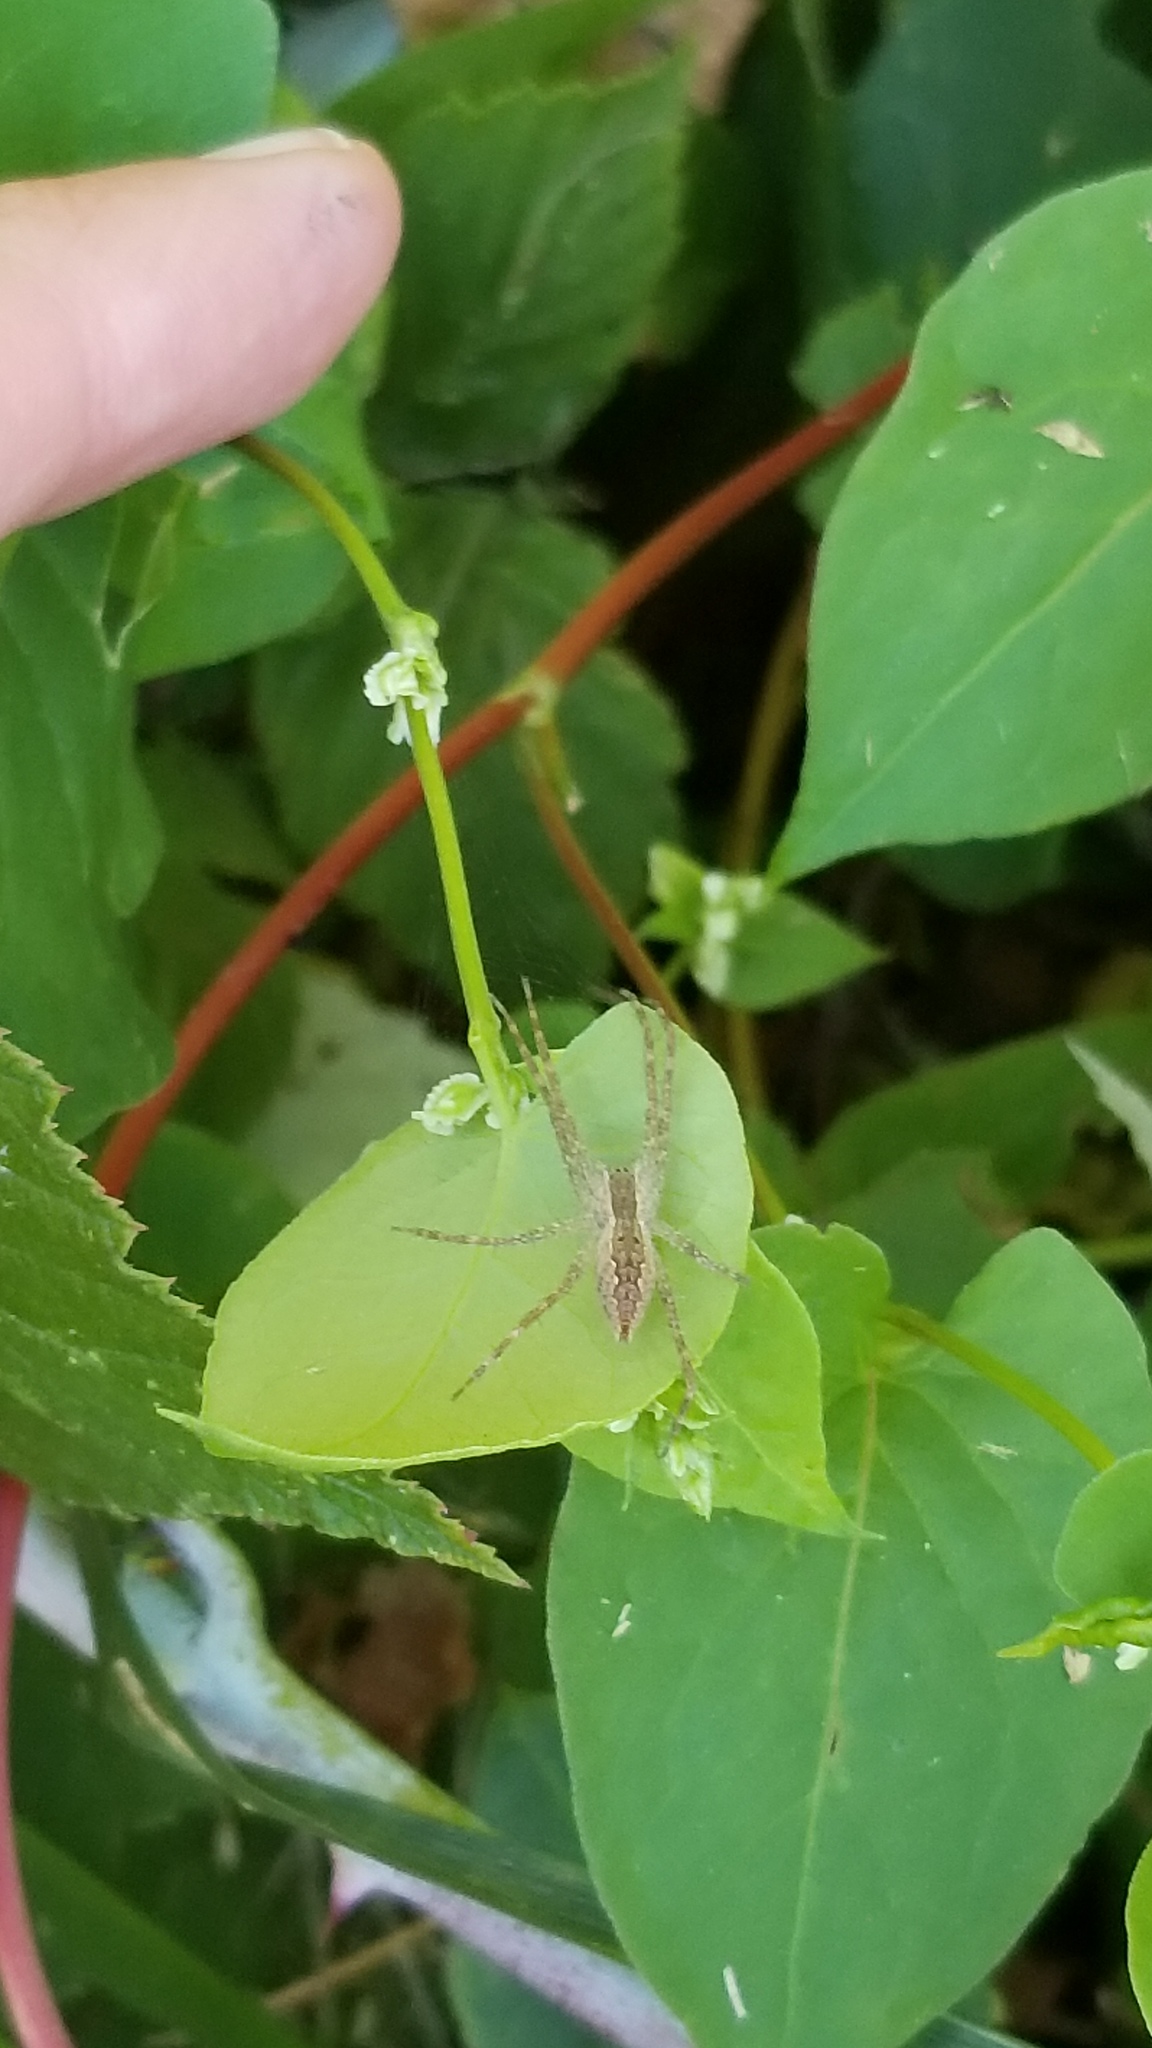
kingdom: Animalia
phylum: Arthropoda
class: Arachnida
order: Araneae
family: Pisauridae
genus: Pisaurina
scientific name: Pisaurina mira
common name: American nursery web spider
